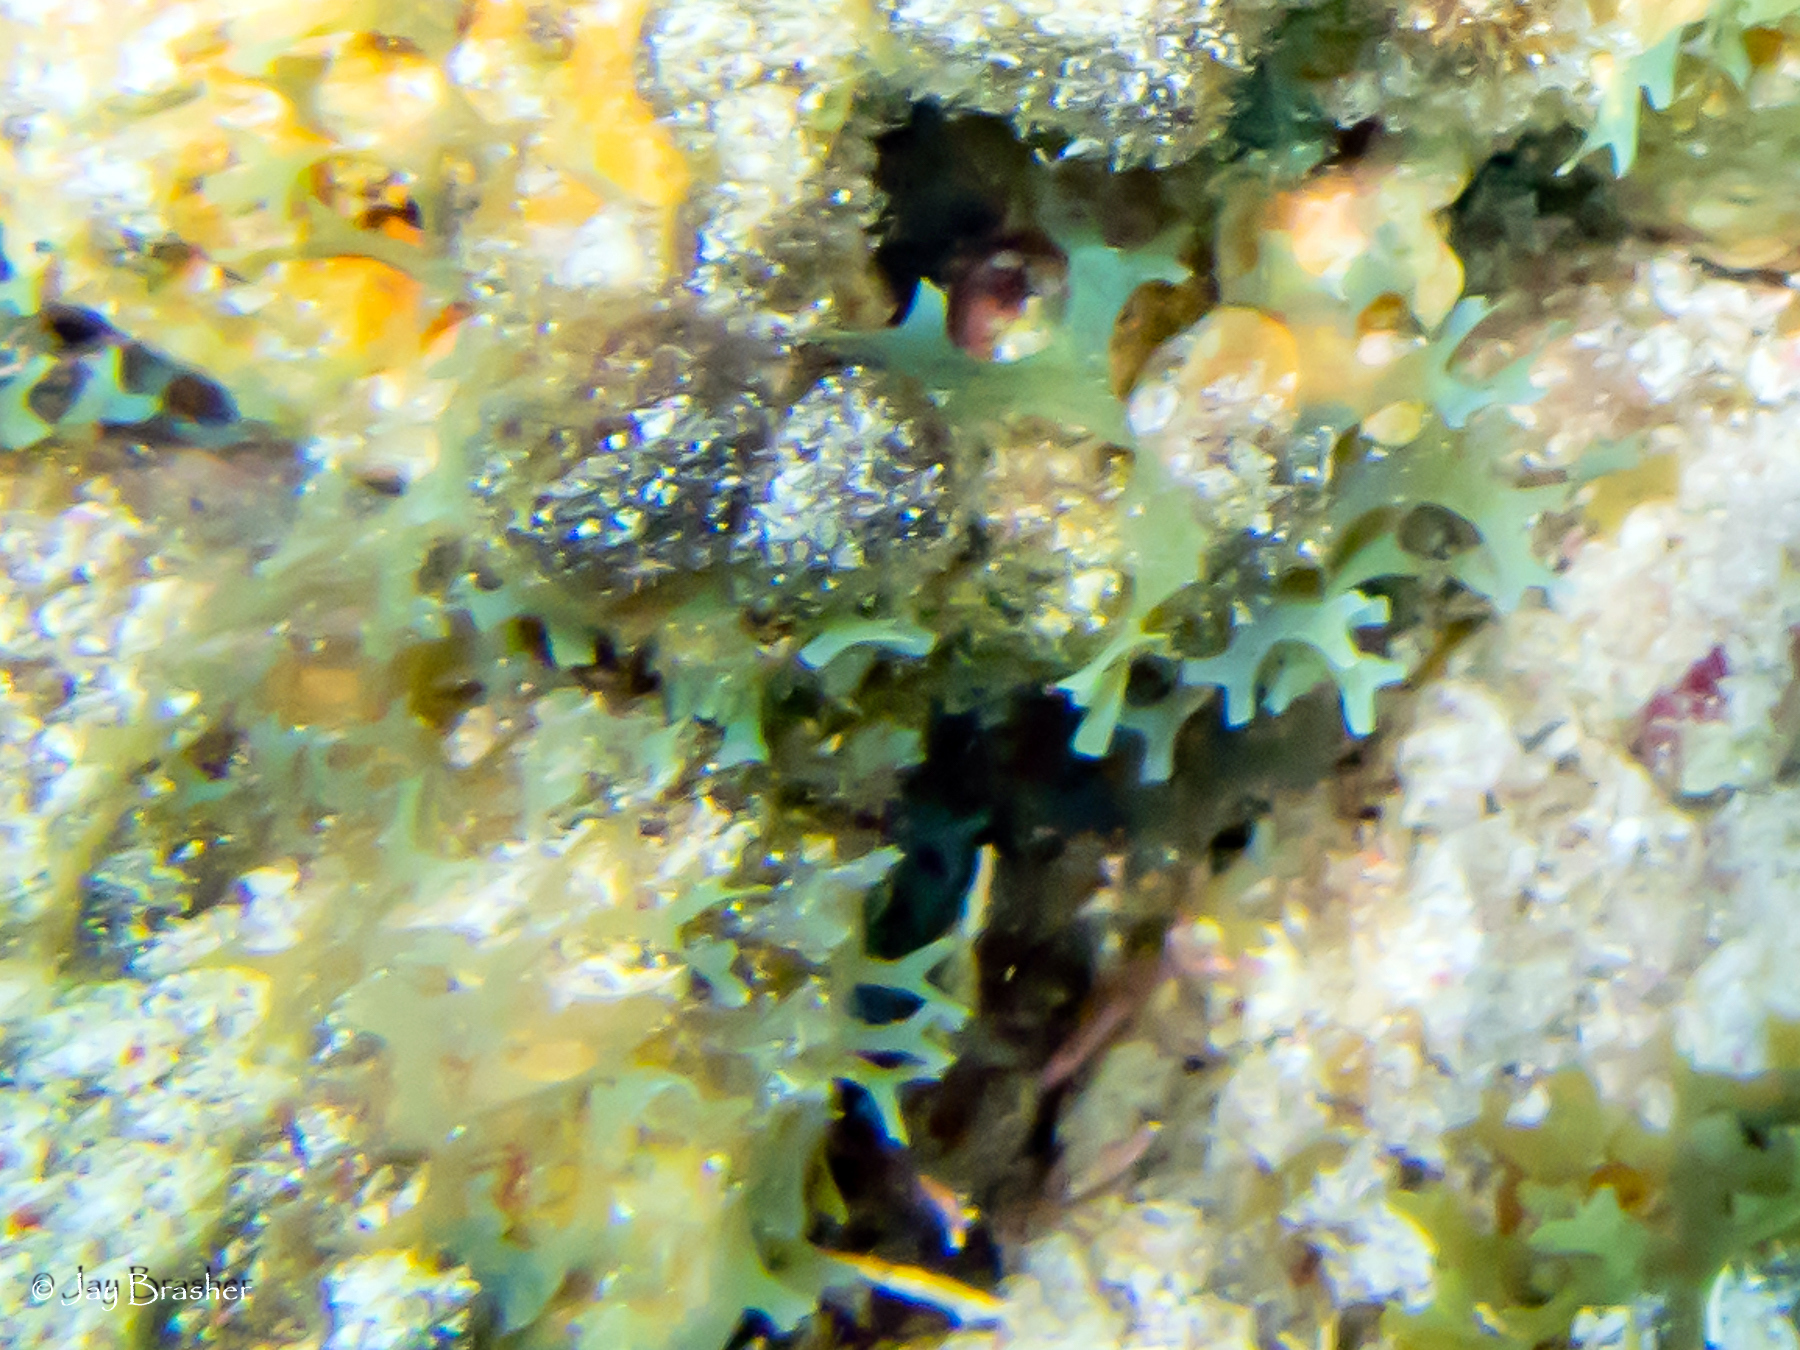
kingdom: Chromista
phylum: Ochrophyta
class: Phaeophyceae
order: Dictyotales
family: Dictyotaceae
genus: Dictyota
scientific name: Dictyota dichotoma
